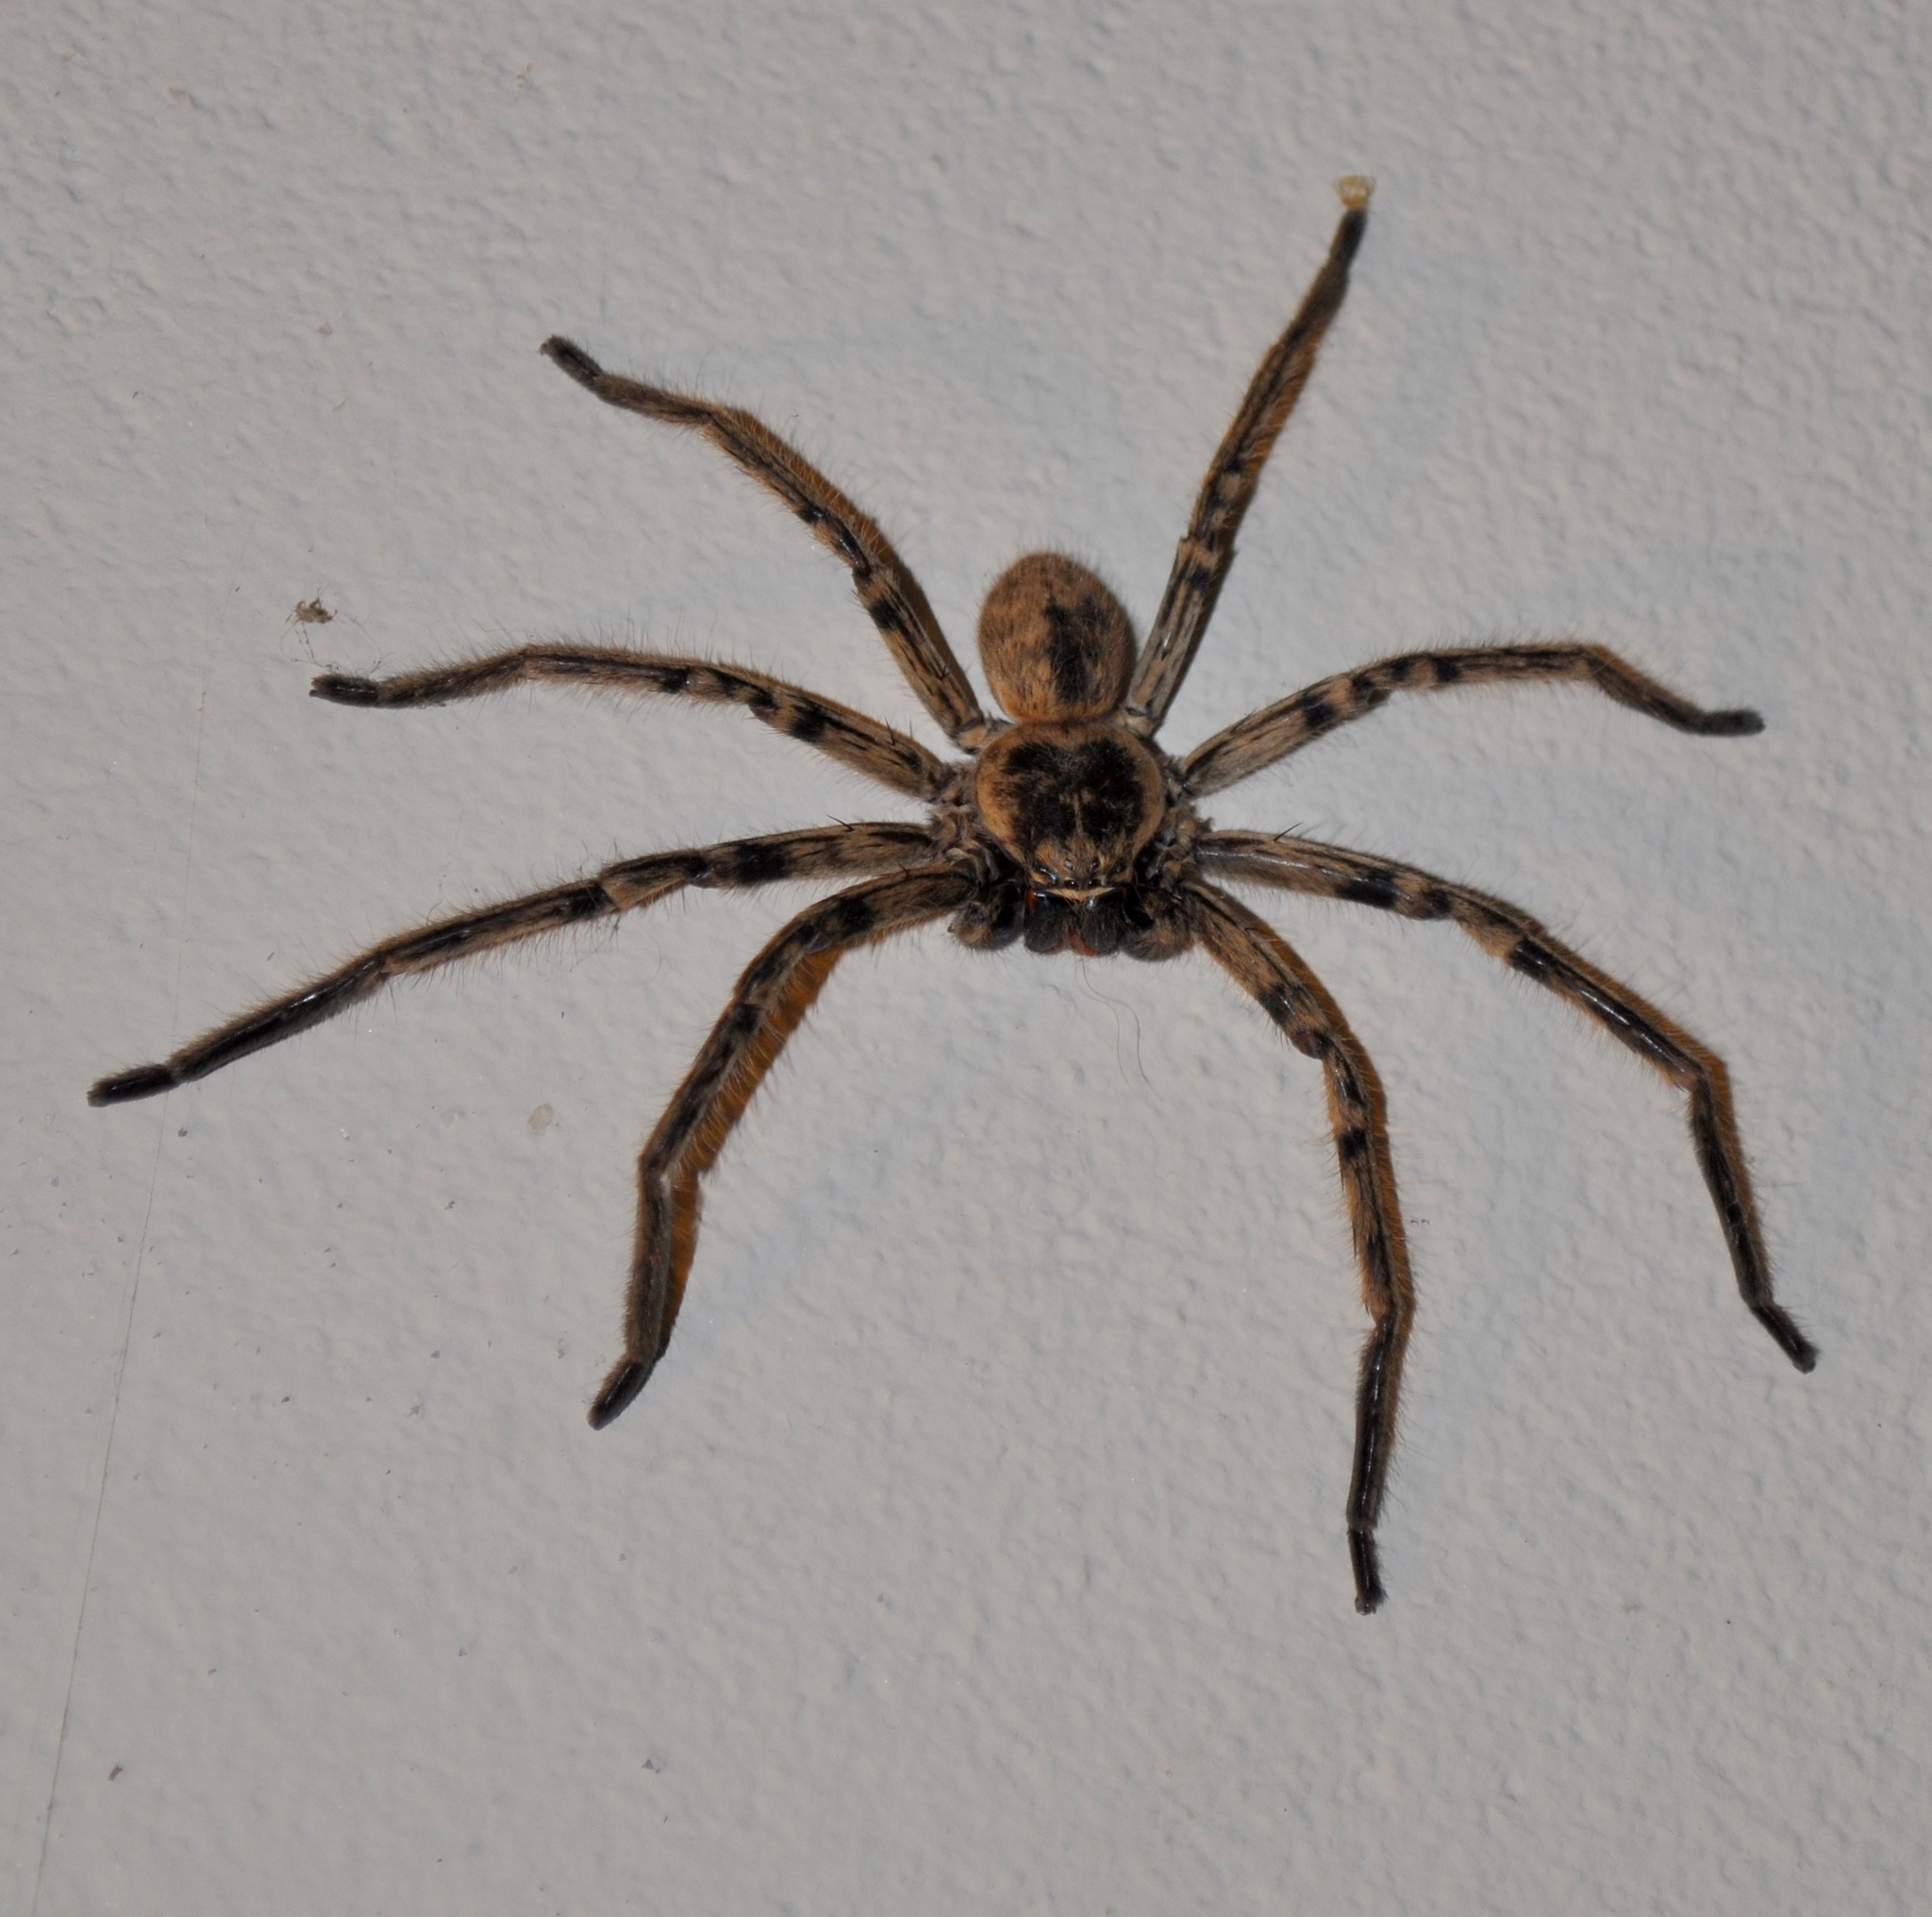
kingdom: Animalia
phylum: Arthropoda
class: Arachnida
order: Araneae
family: Sparassidae
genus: Polybetes
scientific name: Polybetes pythagoricus
